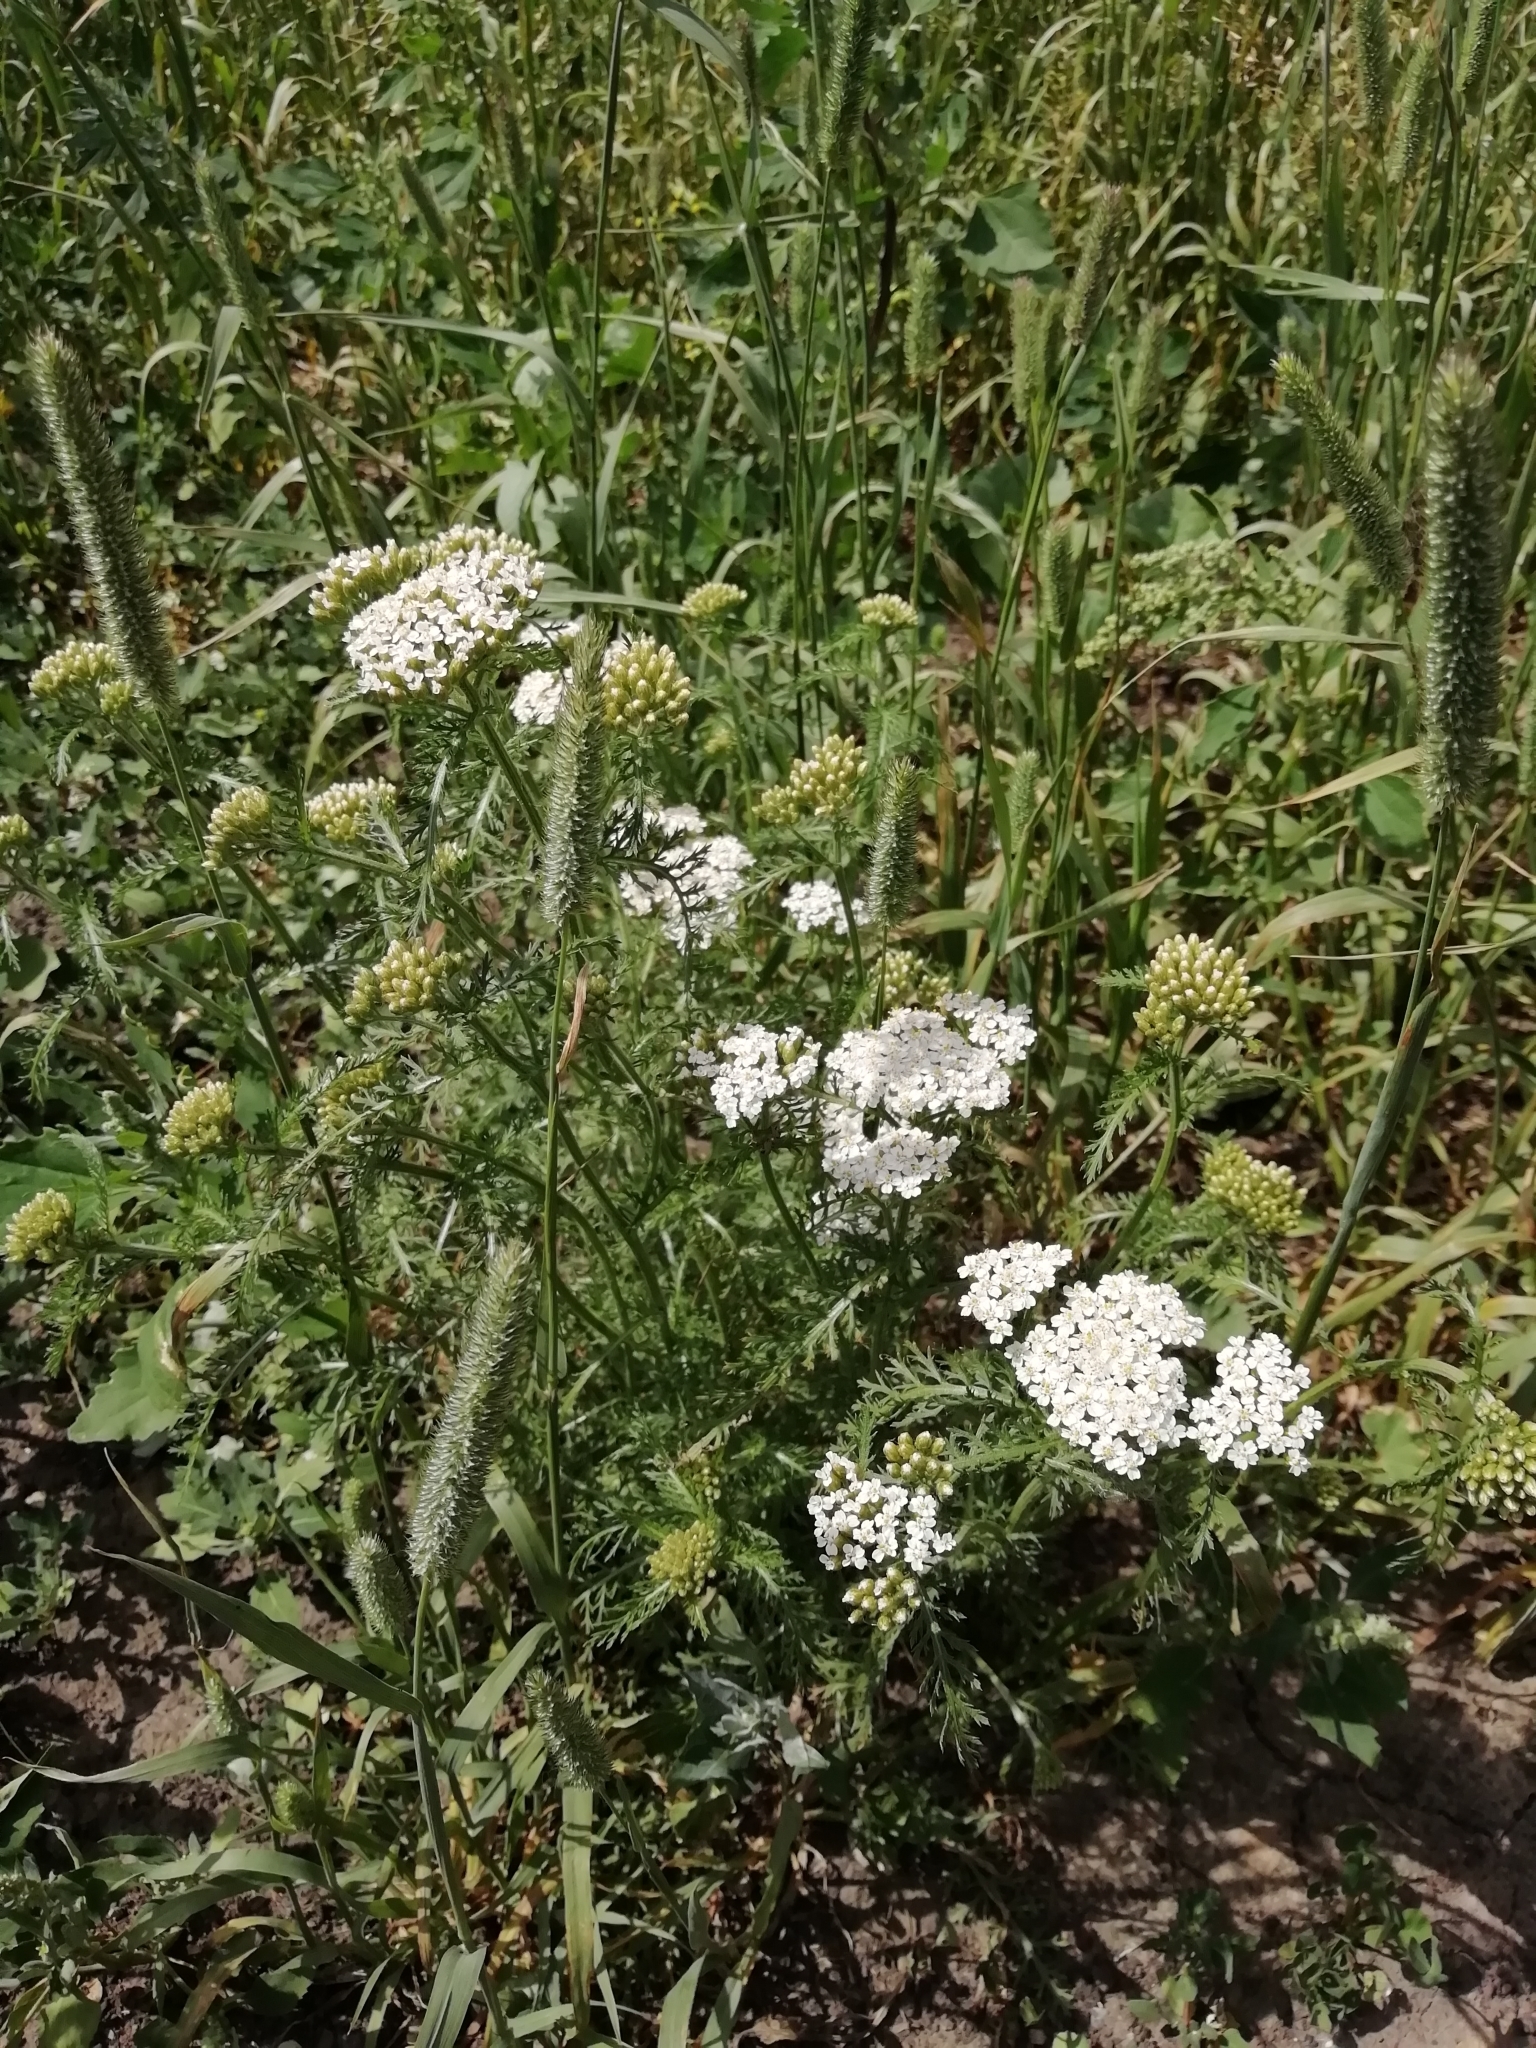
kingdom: Plantae
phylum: Tracheophyta
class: Magnoliopsida
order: Asterales
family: Asteraceae
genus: Achillea
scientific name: Achillea millefolium
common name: Yarrow
